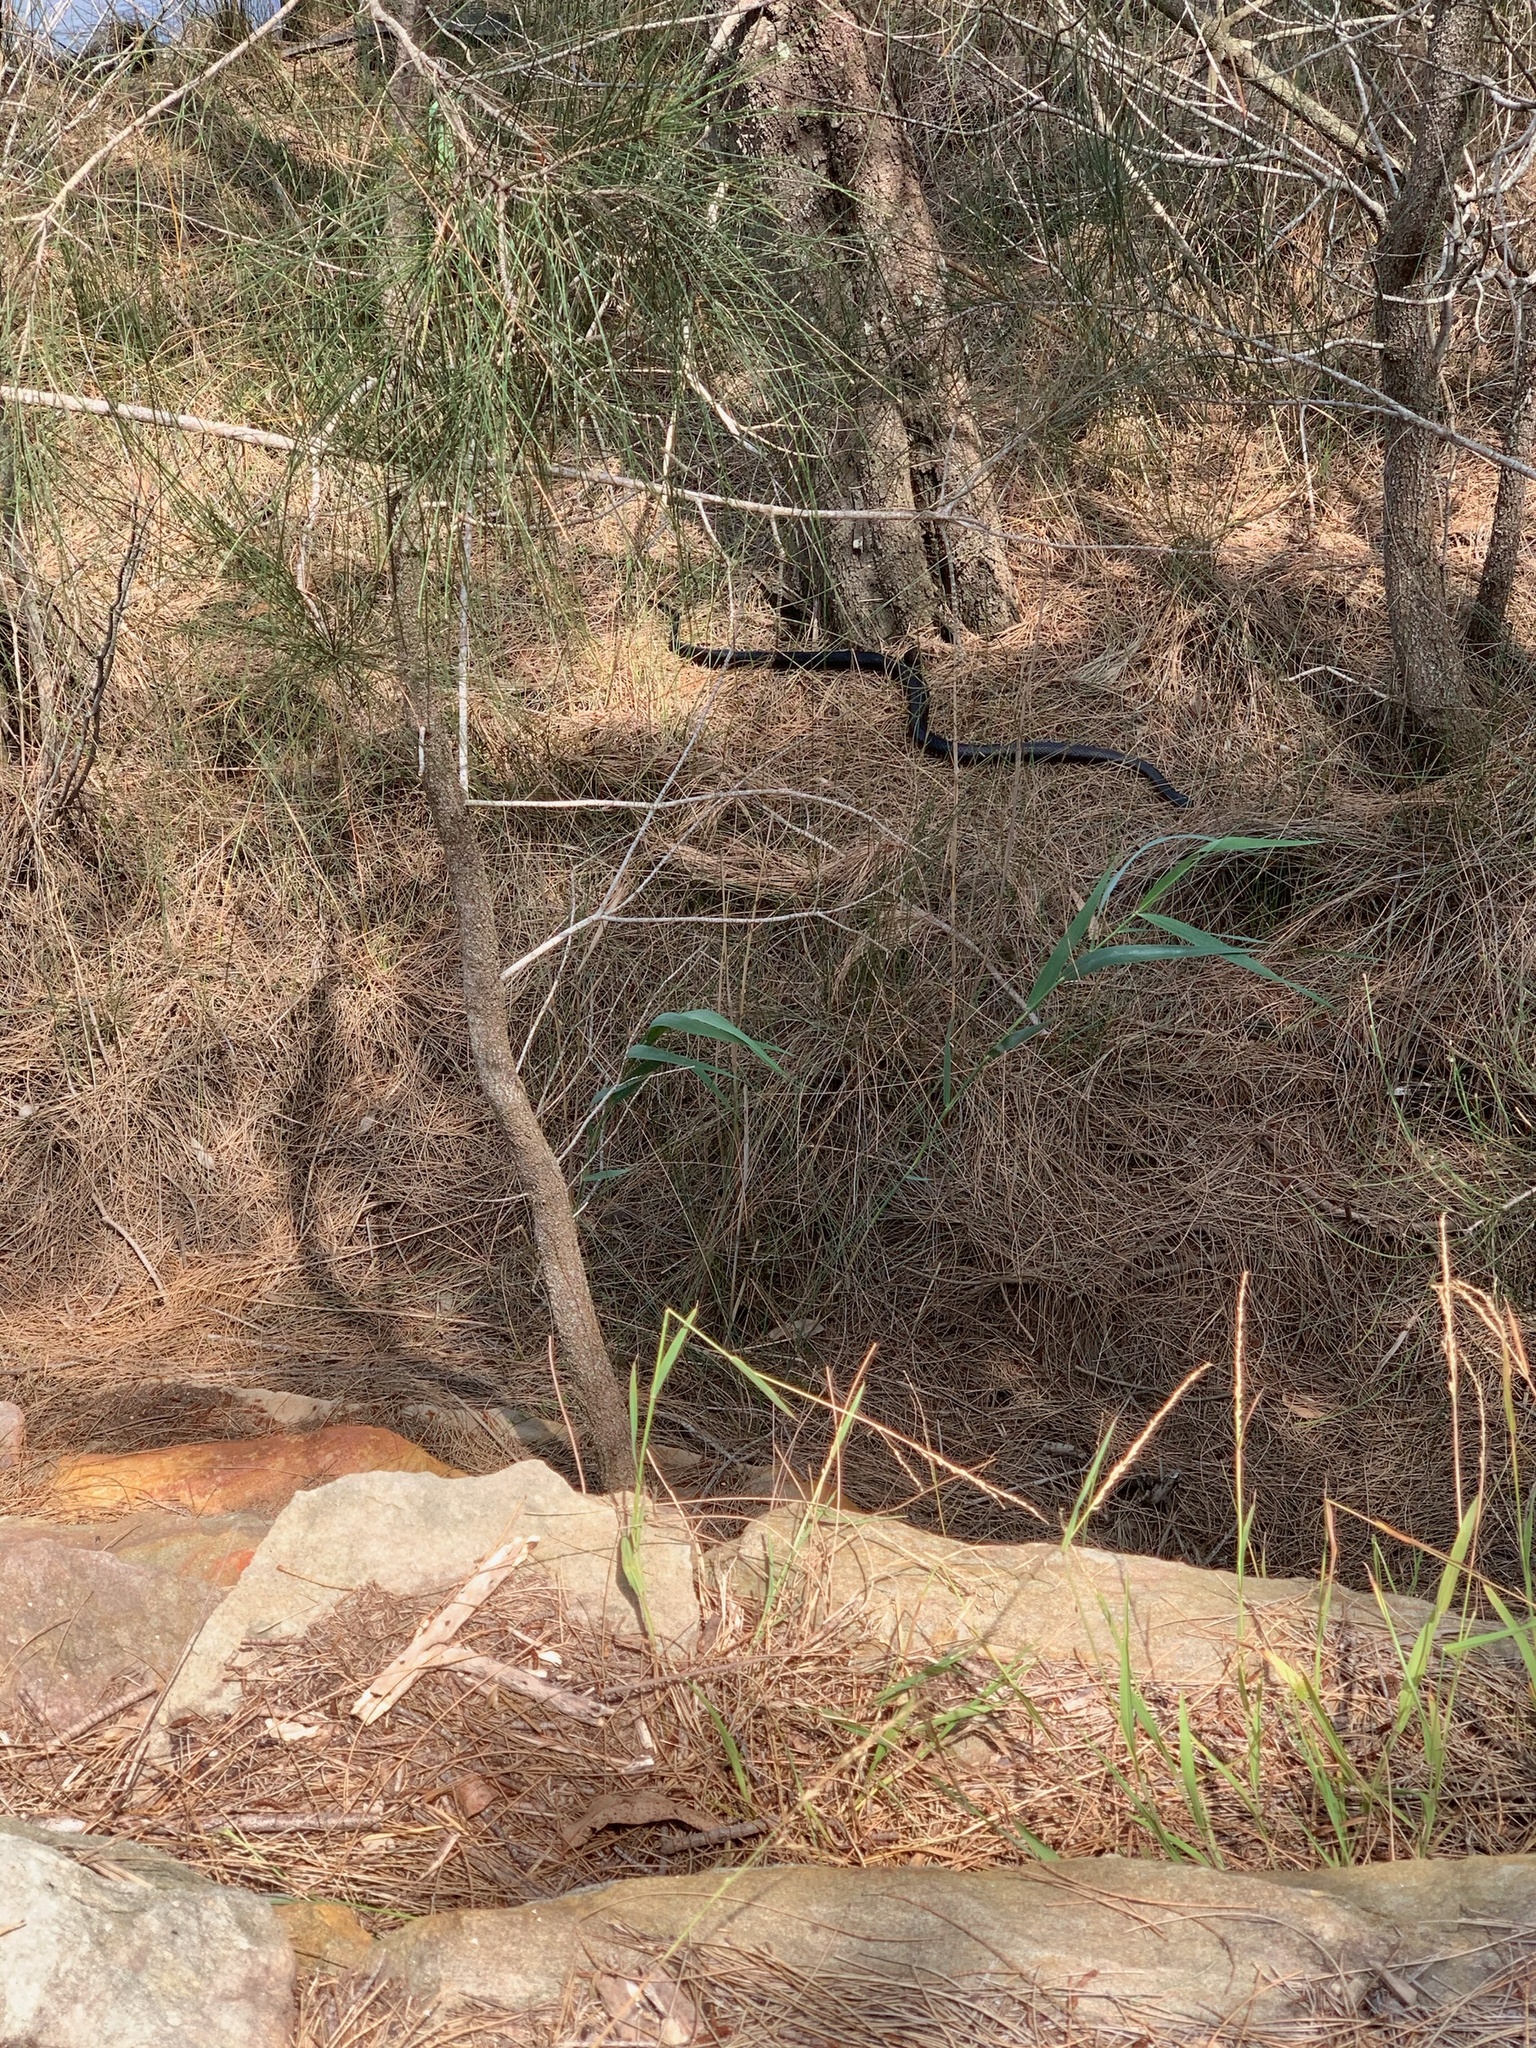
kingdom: Animalia
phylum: Chordata
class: Squamata
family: Elapidae
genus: Pseudechis
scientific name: Pseudechis porphyriacus
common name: Australian black snake
